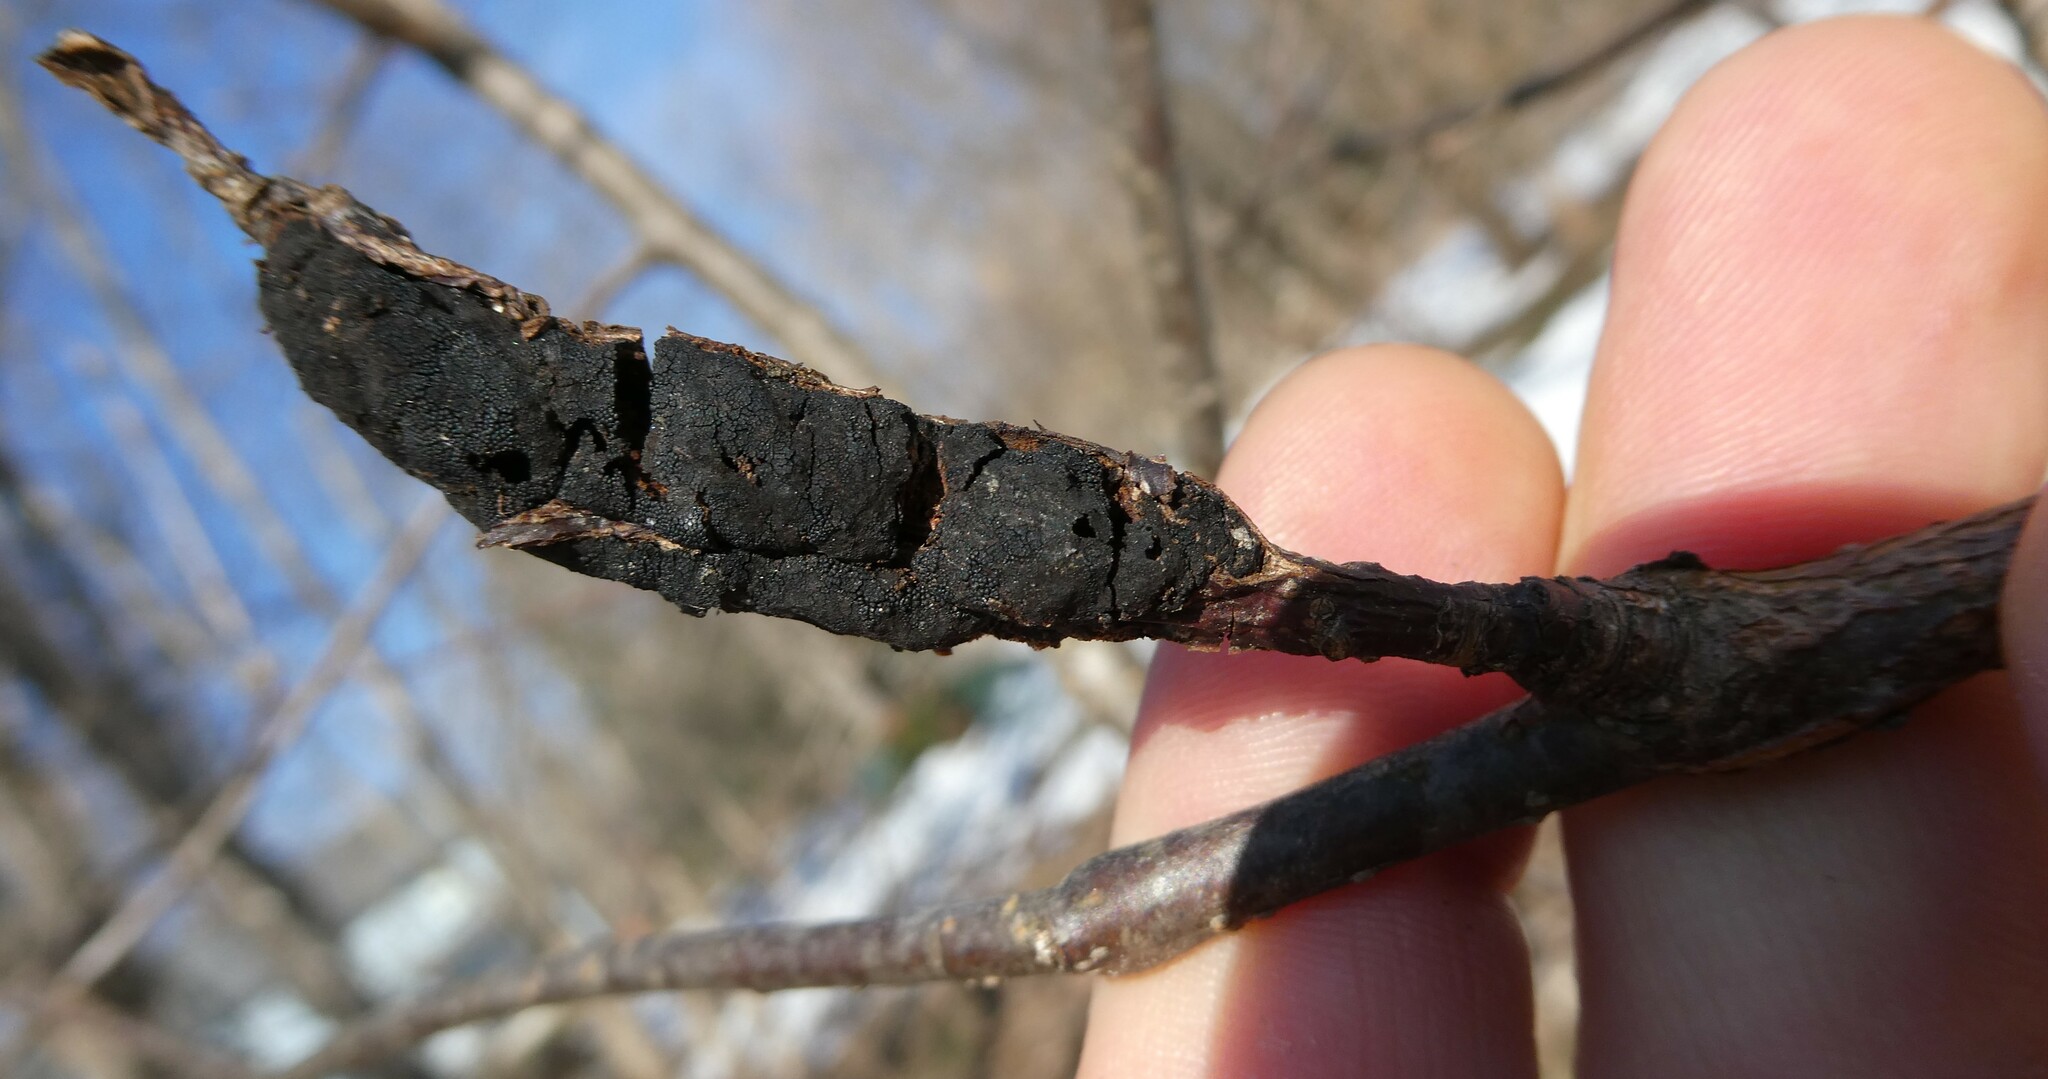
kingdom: Fungi
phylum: Ascomycota
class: Dothideomycetes
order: Venturiales
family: Venturiaceae
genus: Apiosporina
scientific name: Apiosporina morbosa
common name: Black knot
